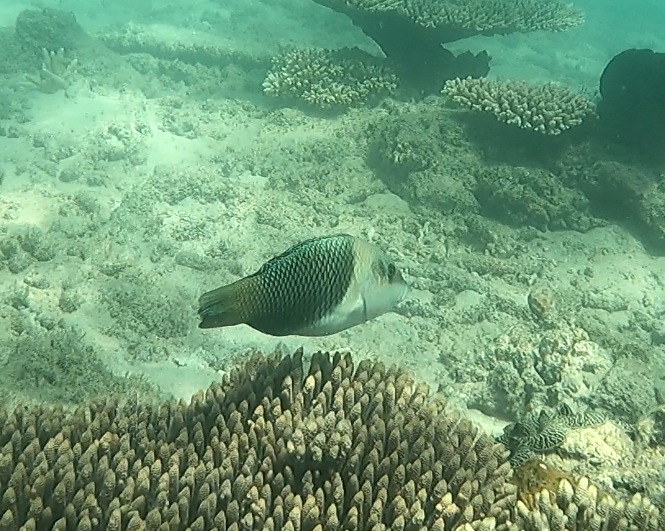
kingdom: Animalia
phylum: Chordata
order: Perciformes
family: Labridae
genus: Hemigymnus
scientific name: Hemigymnus melapterus
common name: Blackeye thicklip
